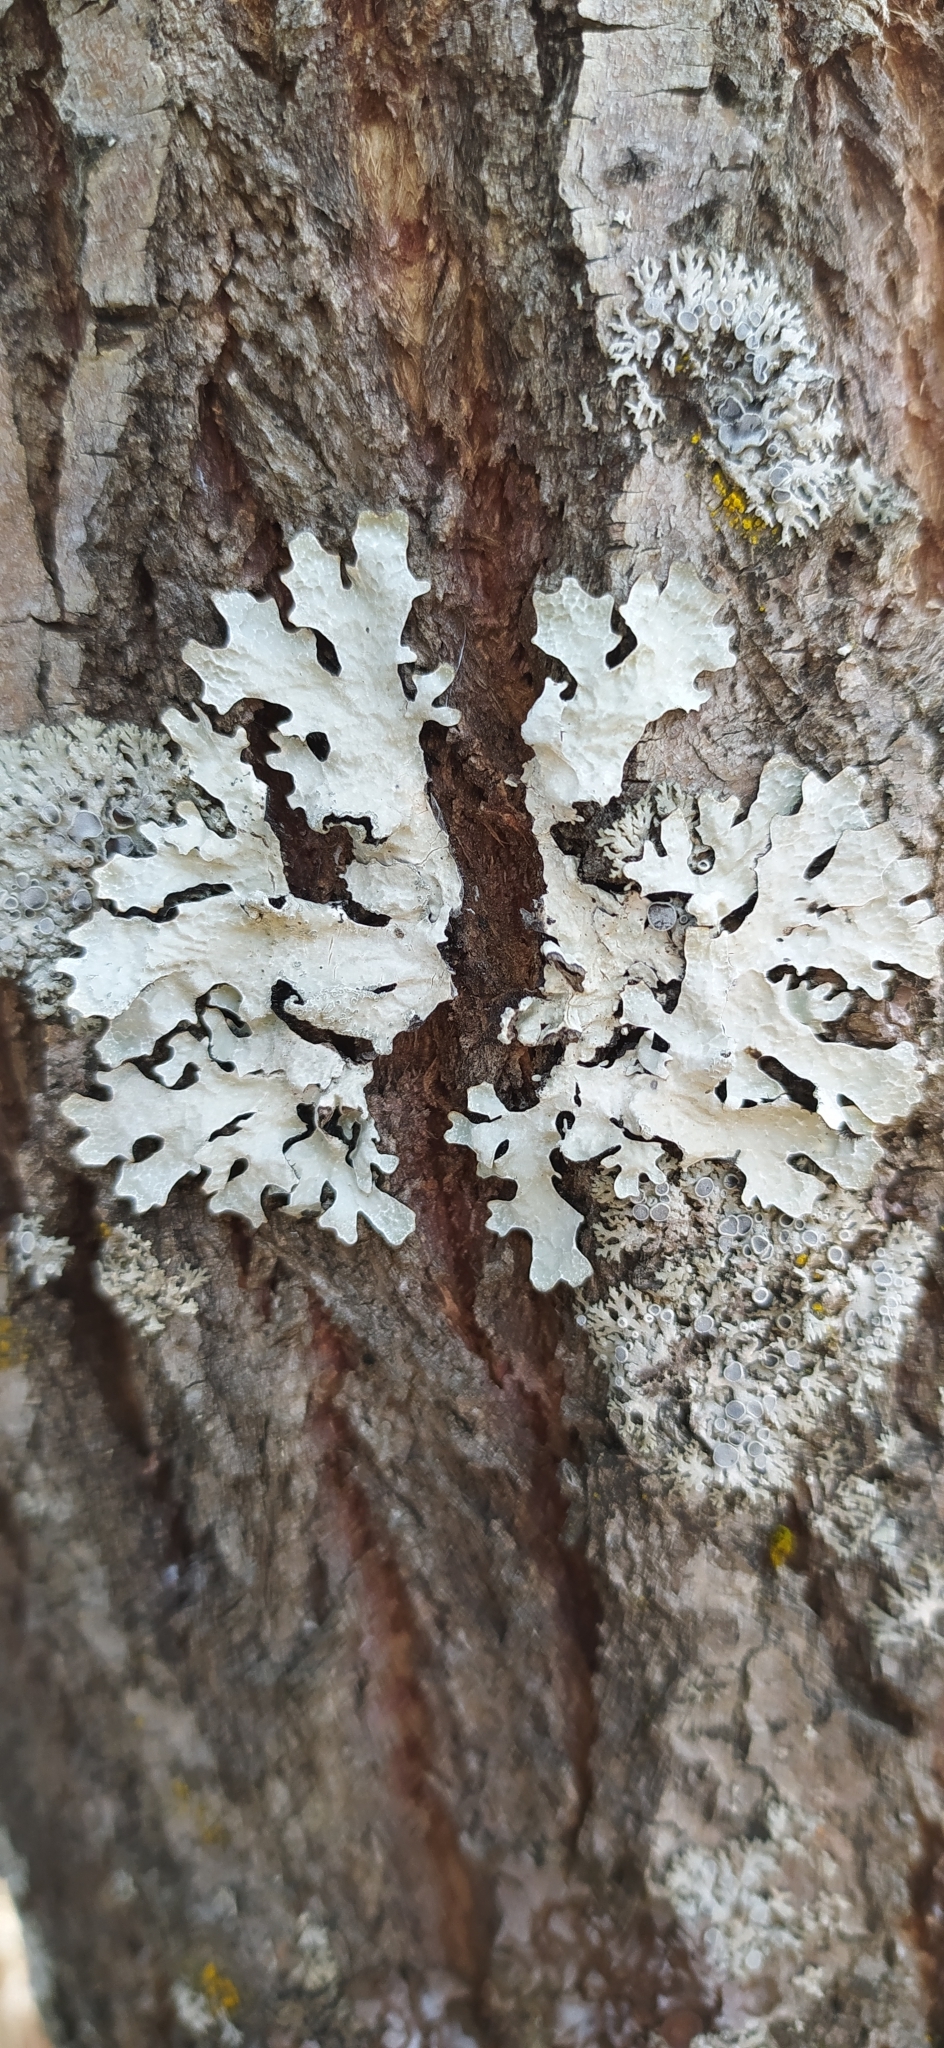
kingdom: Fungi
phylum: Ascomycota
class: Lecanoromycetes
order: Lecanorales
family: Parmeliaceae
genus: Parmelia
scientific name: Parmelia sulcata
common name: Netted shield lichen
